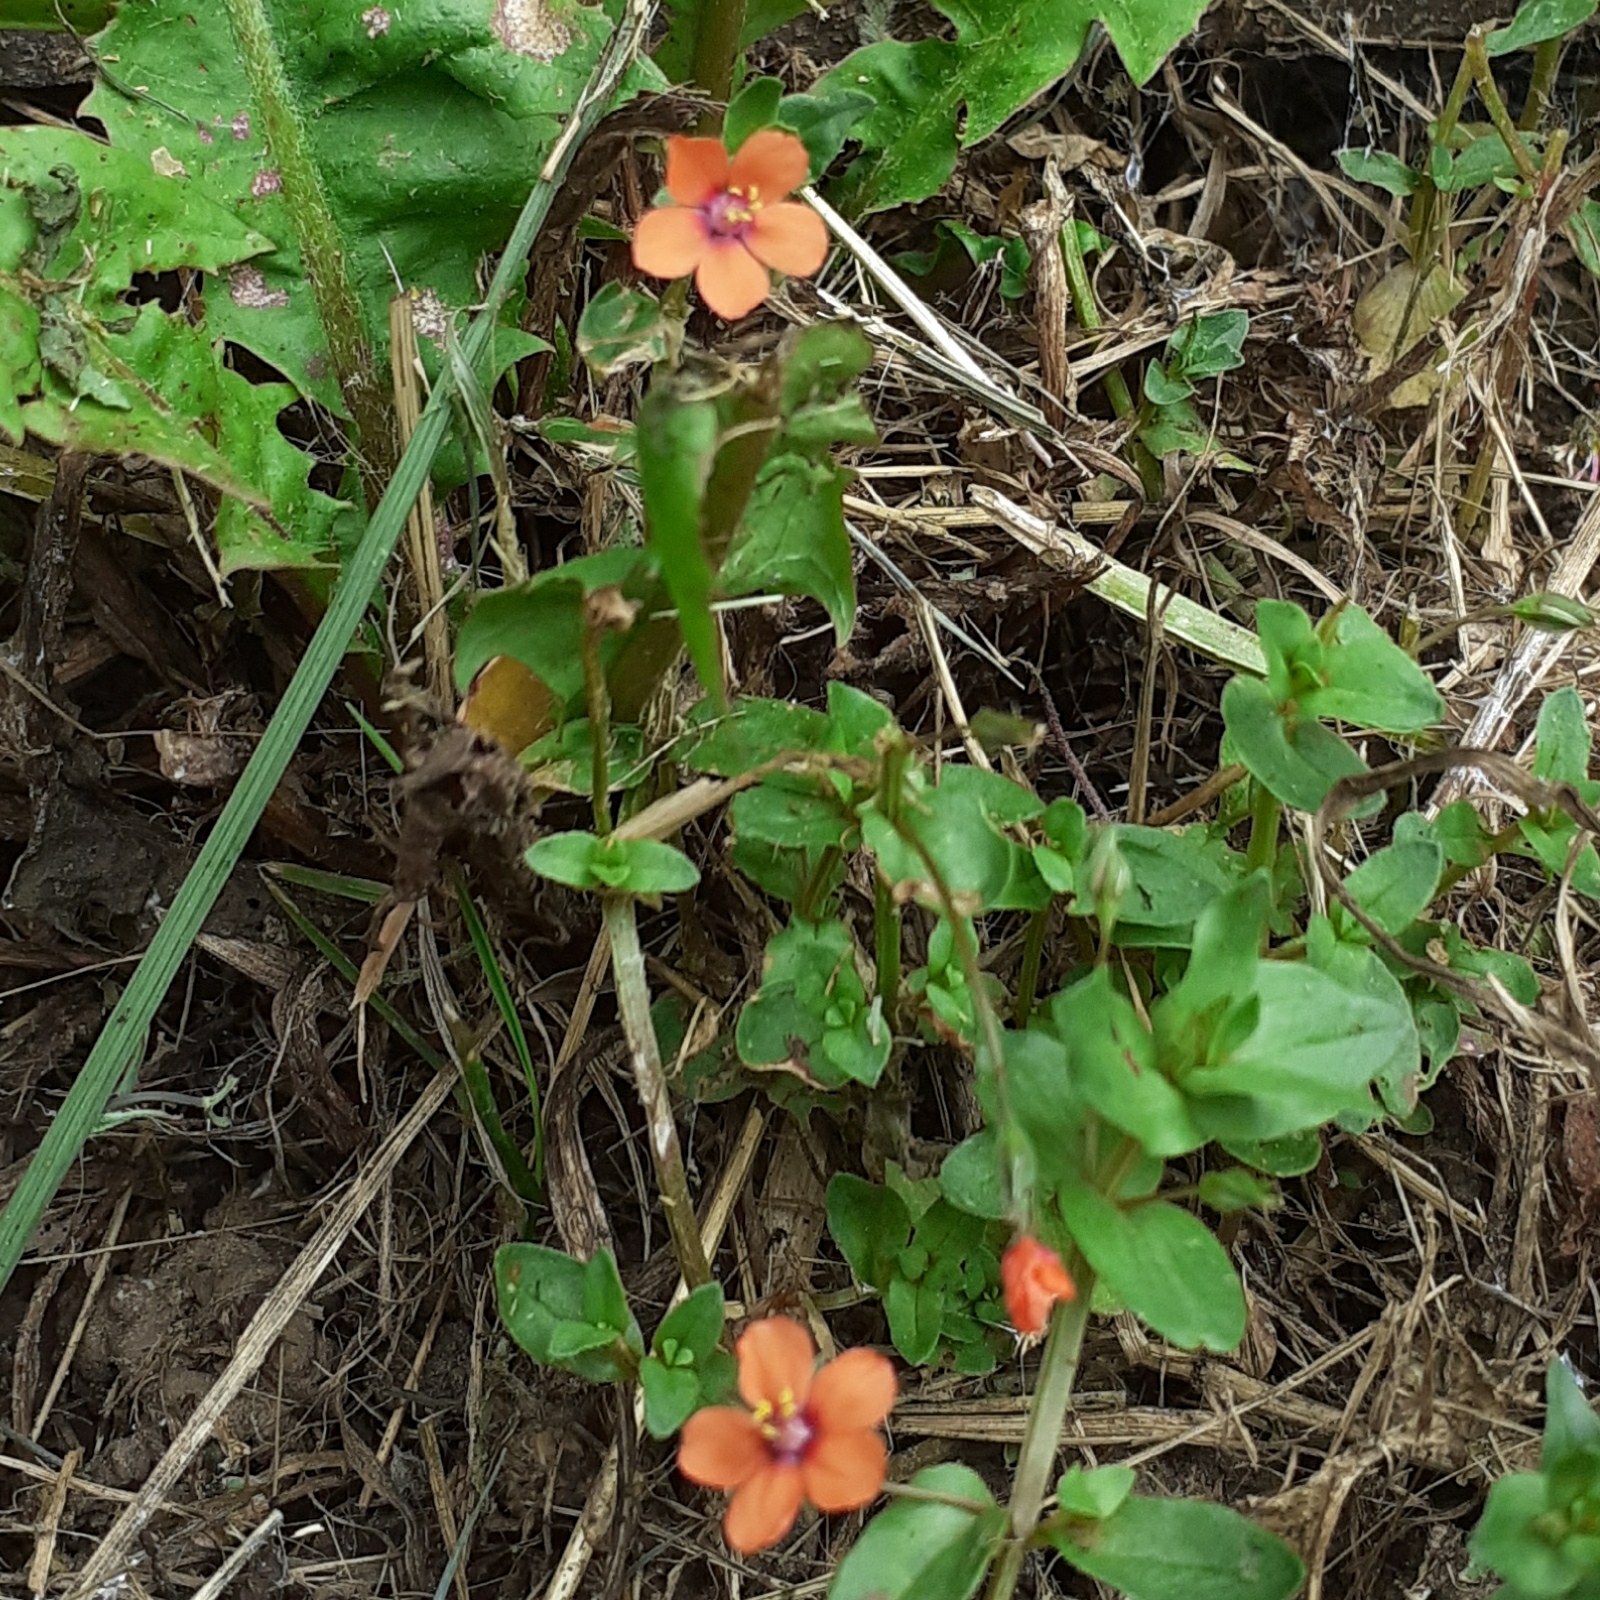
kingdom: Plantae
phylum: Tracheophyta
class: Magnoliopsida
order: Ericales
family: Primulaceae
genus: Lysimachia
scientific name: Lysimachia arvensis
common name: Scarlet pimpernel
